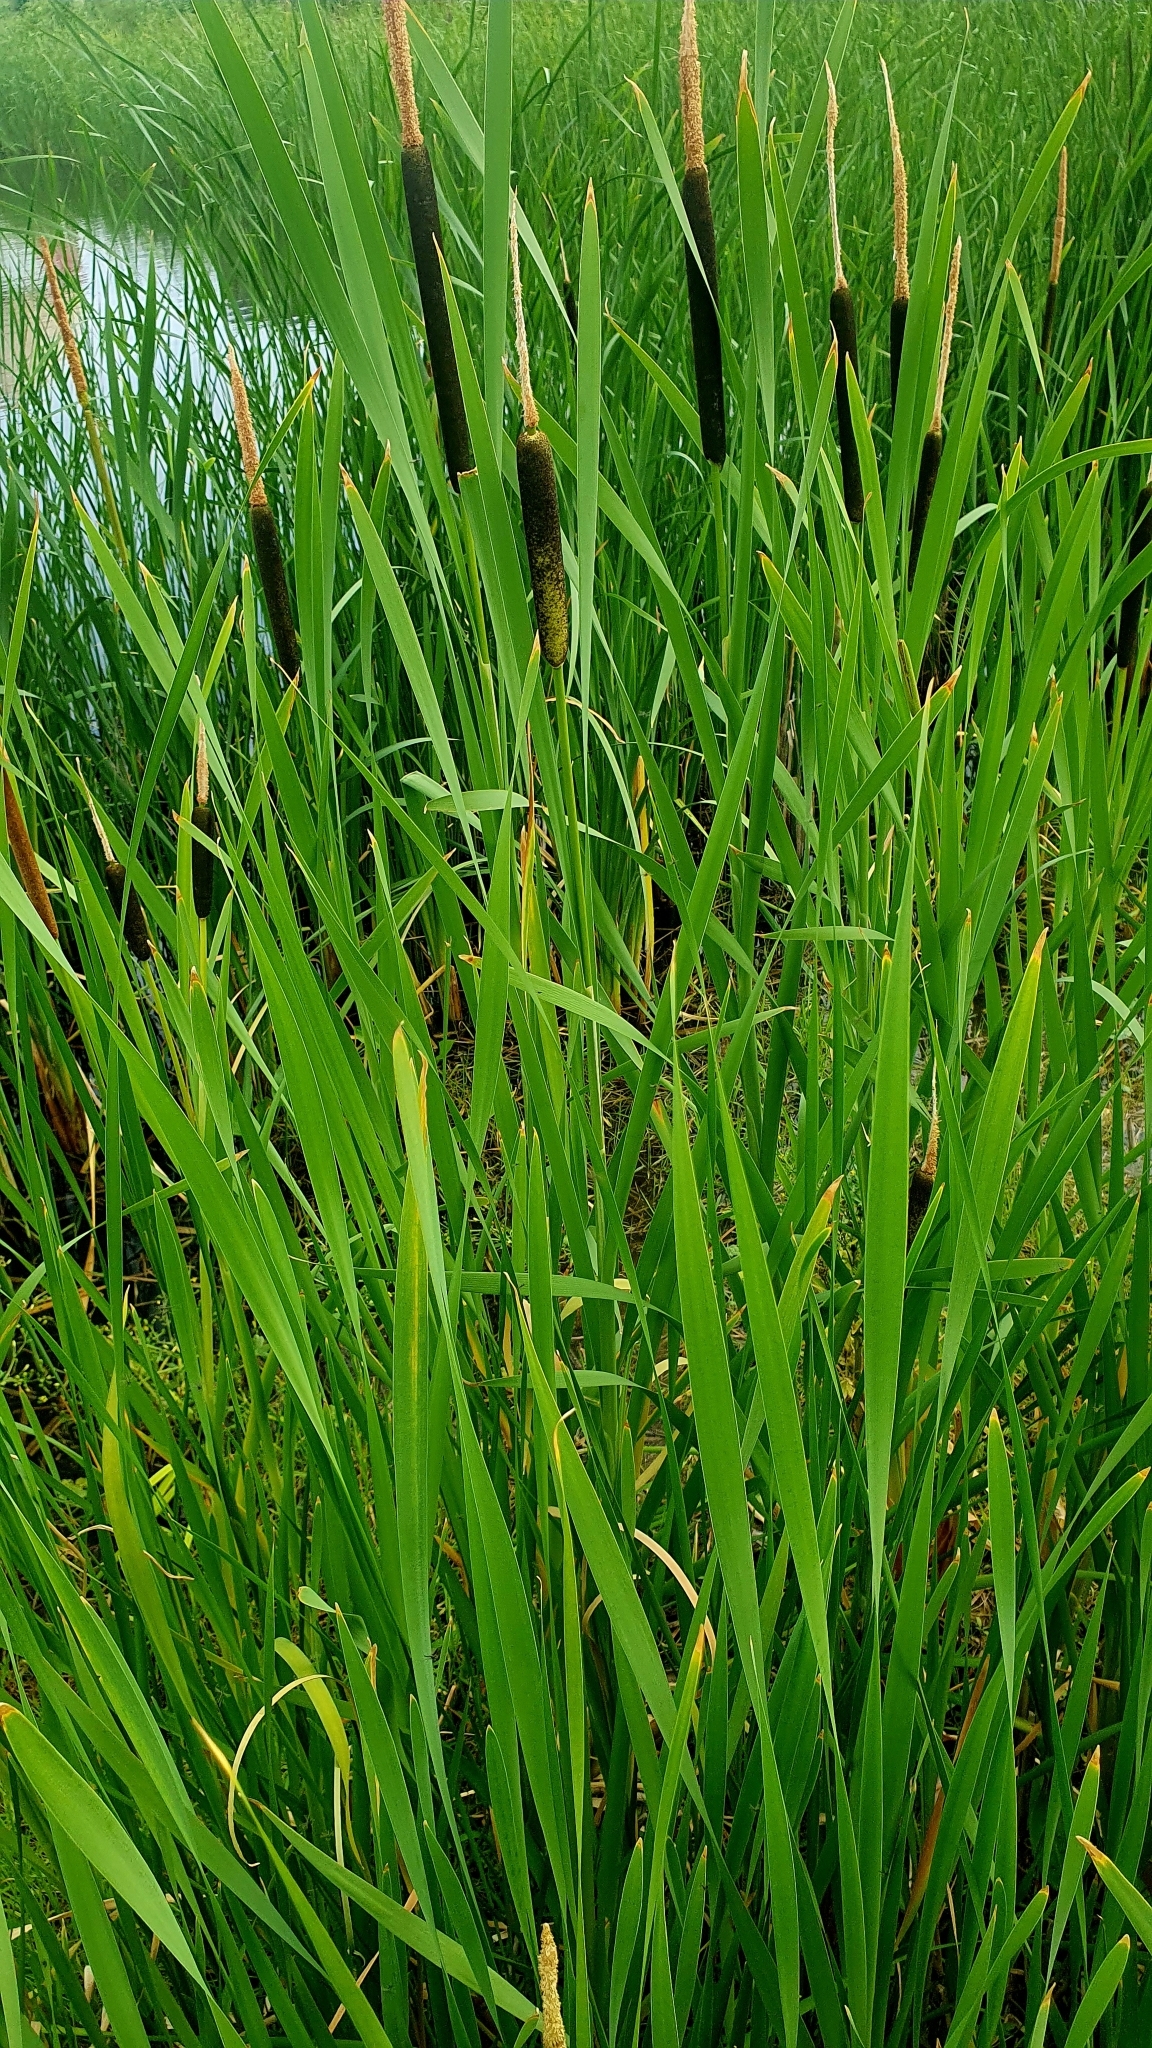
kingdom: Plantae
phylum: Tracheophyta
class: Liliopsida
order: Poales
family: Typhaceae
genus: Typha
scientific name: Typha glauca
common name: Blue cattail
